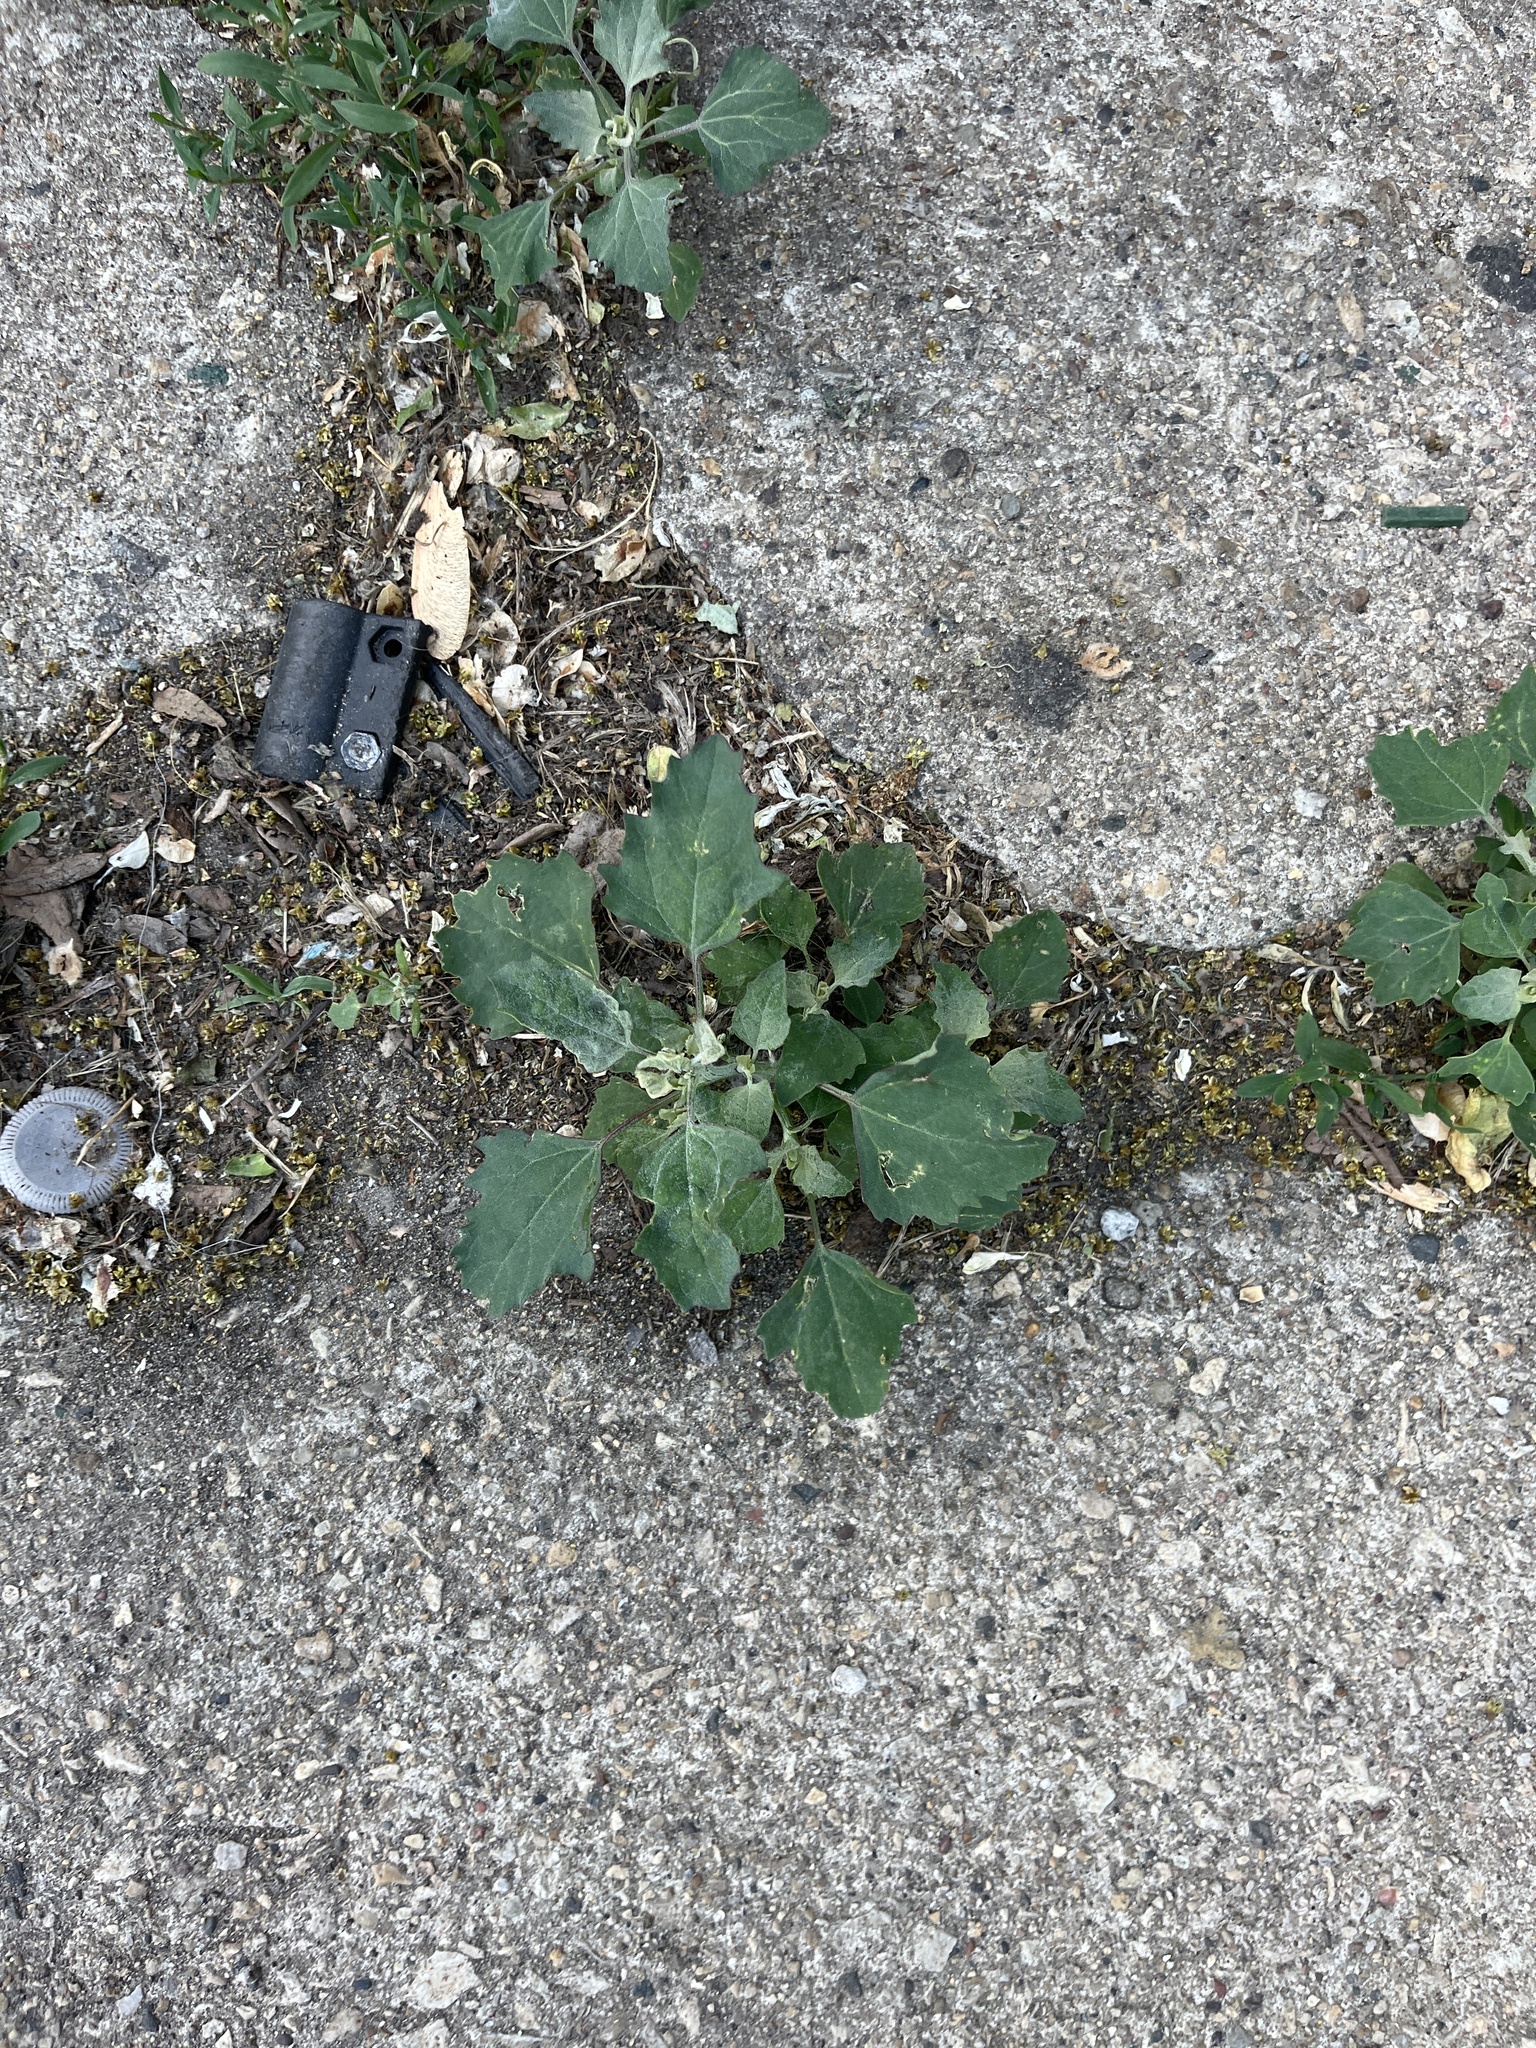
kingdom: Plantae
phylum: Tracheophyta
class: Magnoliopsida
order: Caryophyllales
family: Amaranthaceae
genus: Chenopodium
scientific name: Chenopodium album
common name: Fat-hen
